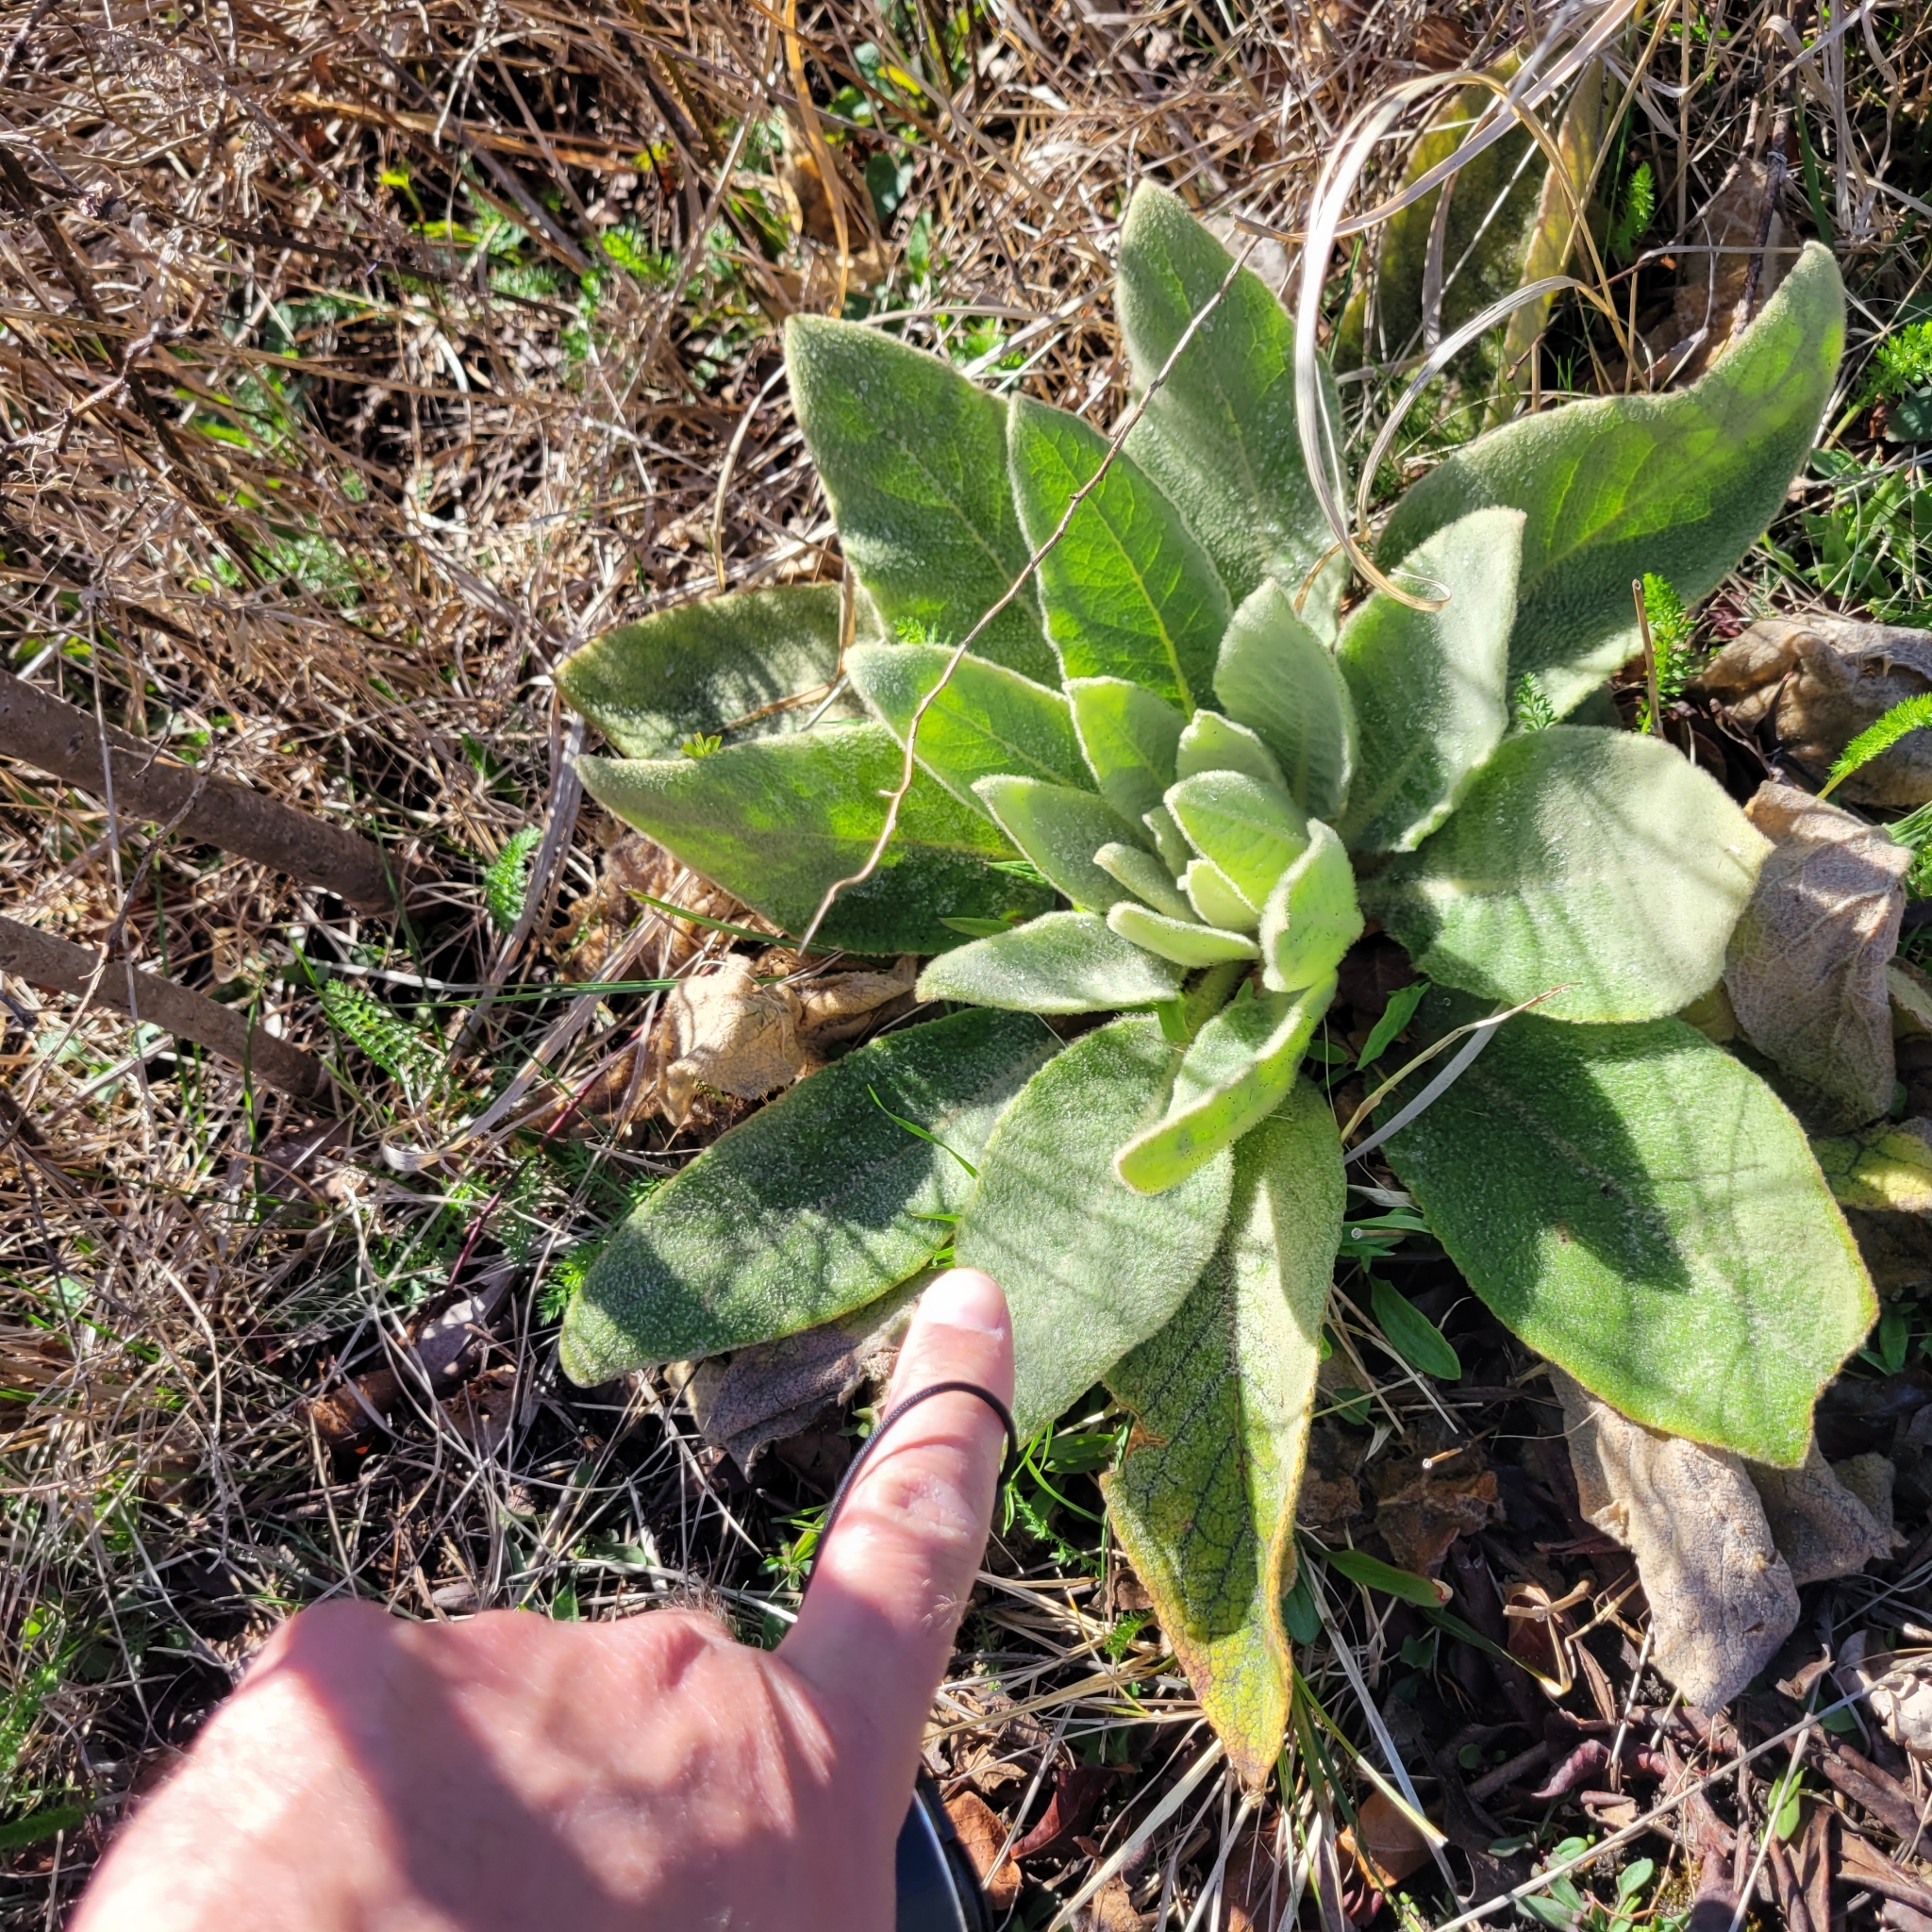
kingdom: Plantae
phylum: Tracheophyta
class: Magnoliopsida
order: Lamiales
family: Scrophulariaceae
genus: Verbascum
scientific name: Verbascum thapsus
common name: Common mullein
